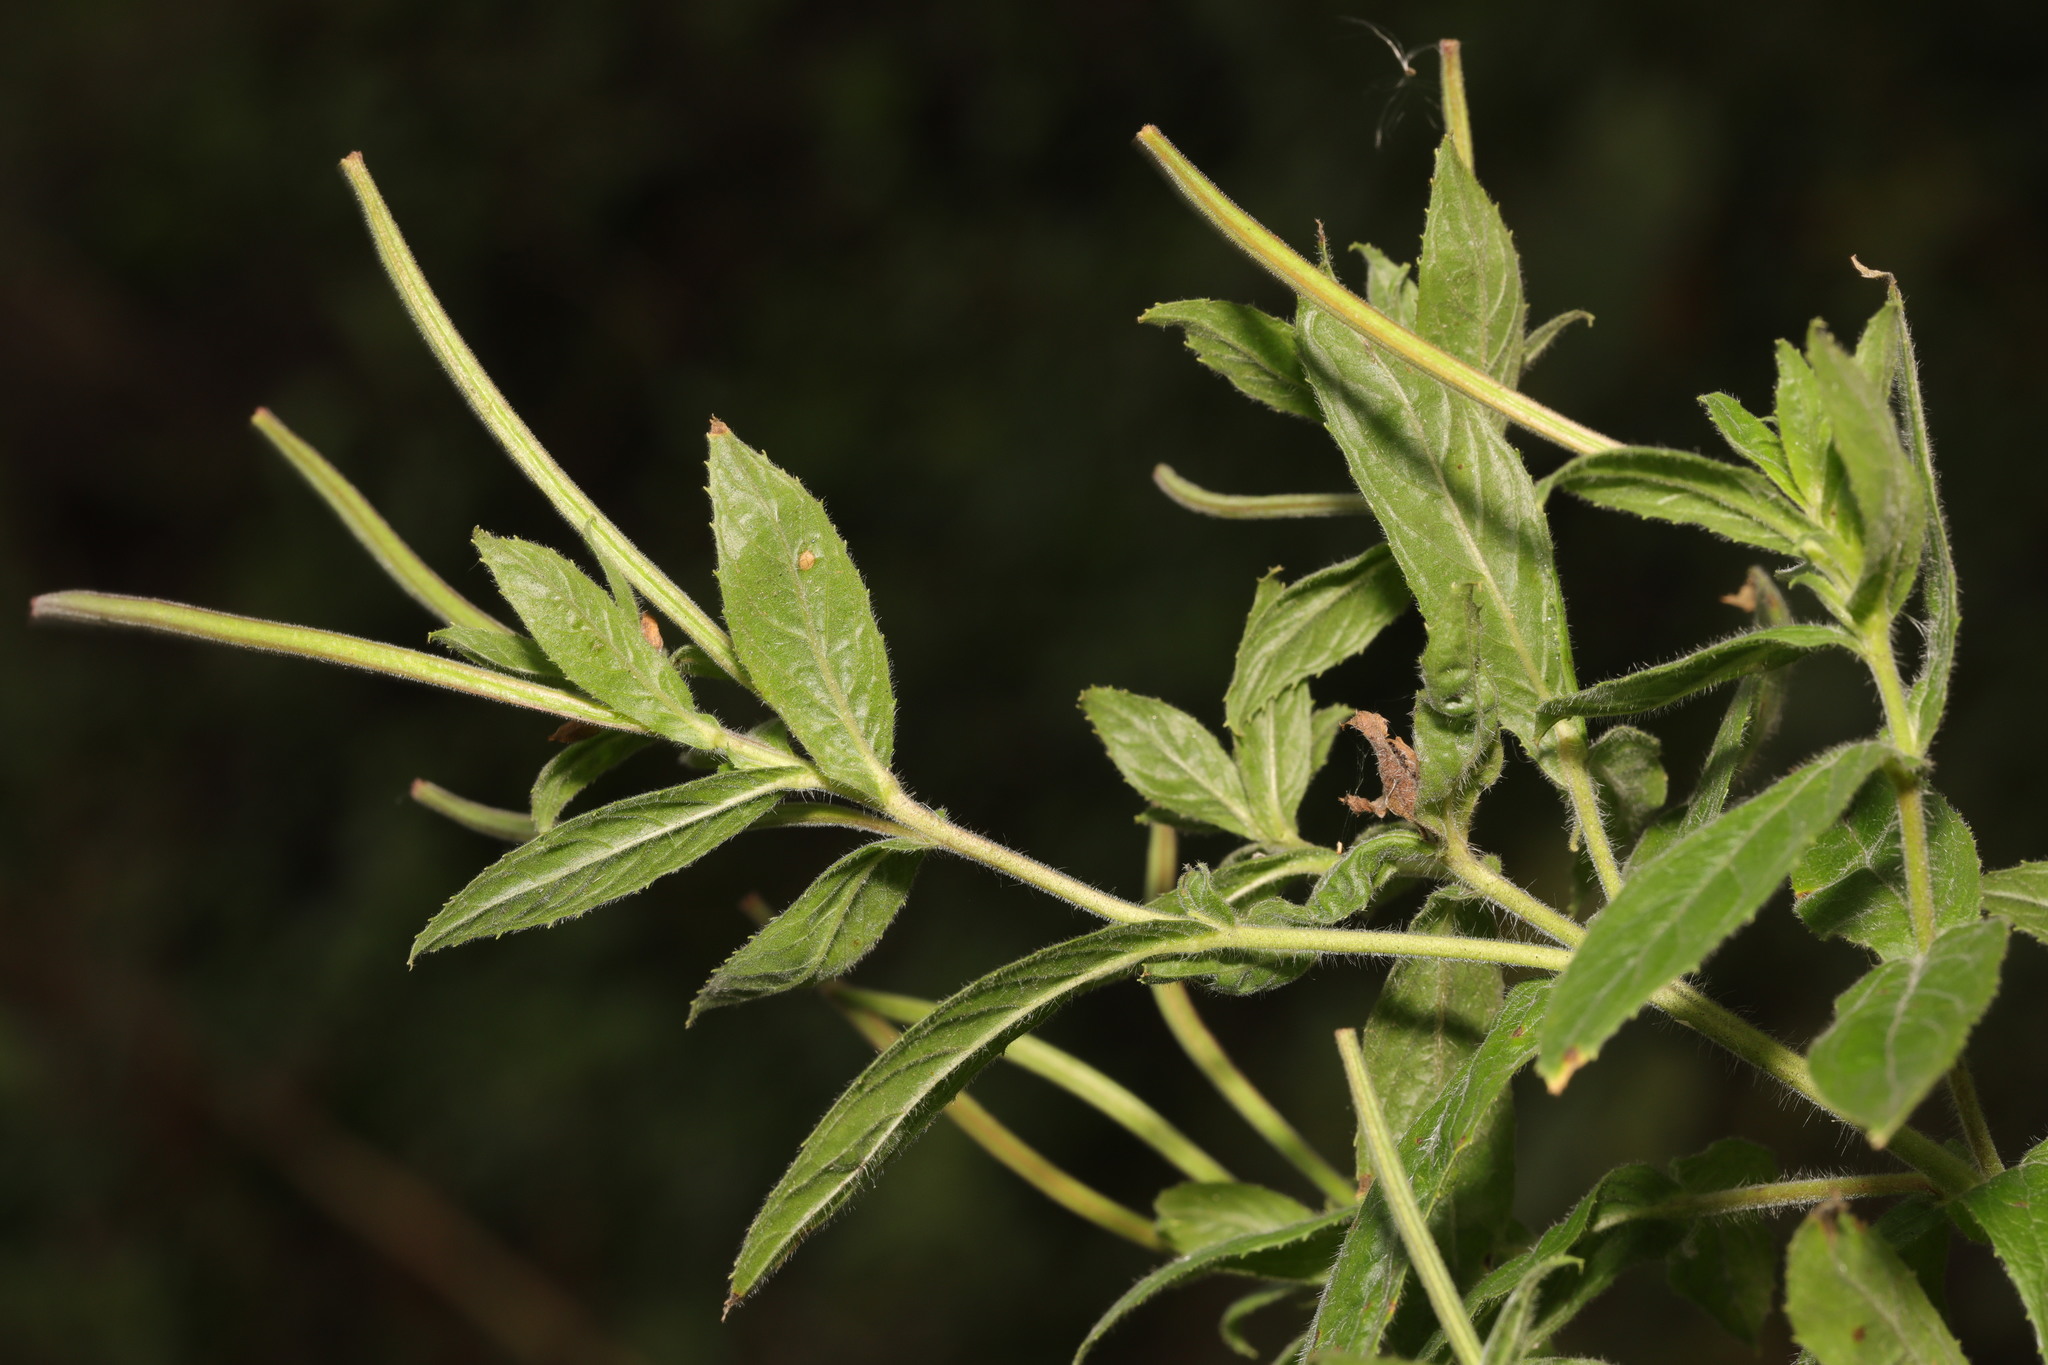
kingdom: Plantae
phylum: Tracheophyta
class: Magnoliopsida
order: Myrtales
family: Onagraceae
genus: Epilobium
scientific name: Epilobium hirsutum
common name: Great willowherb
